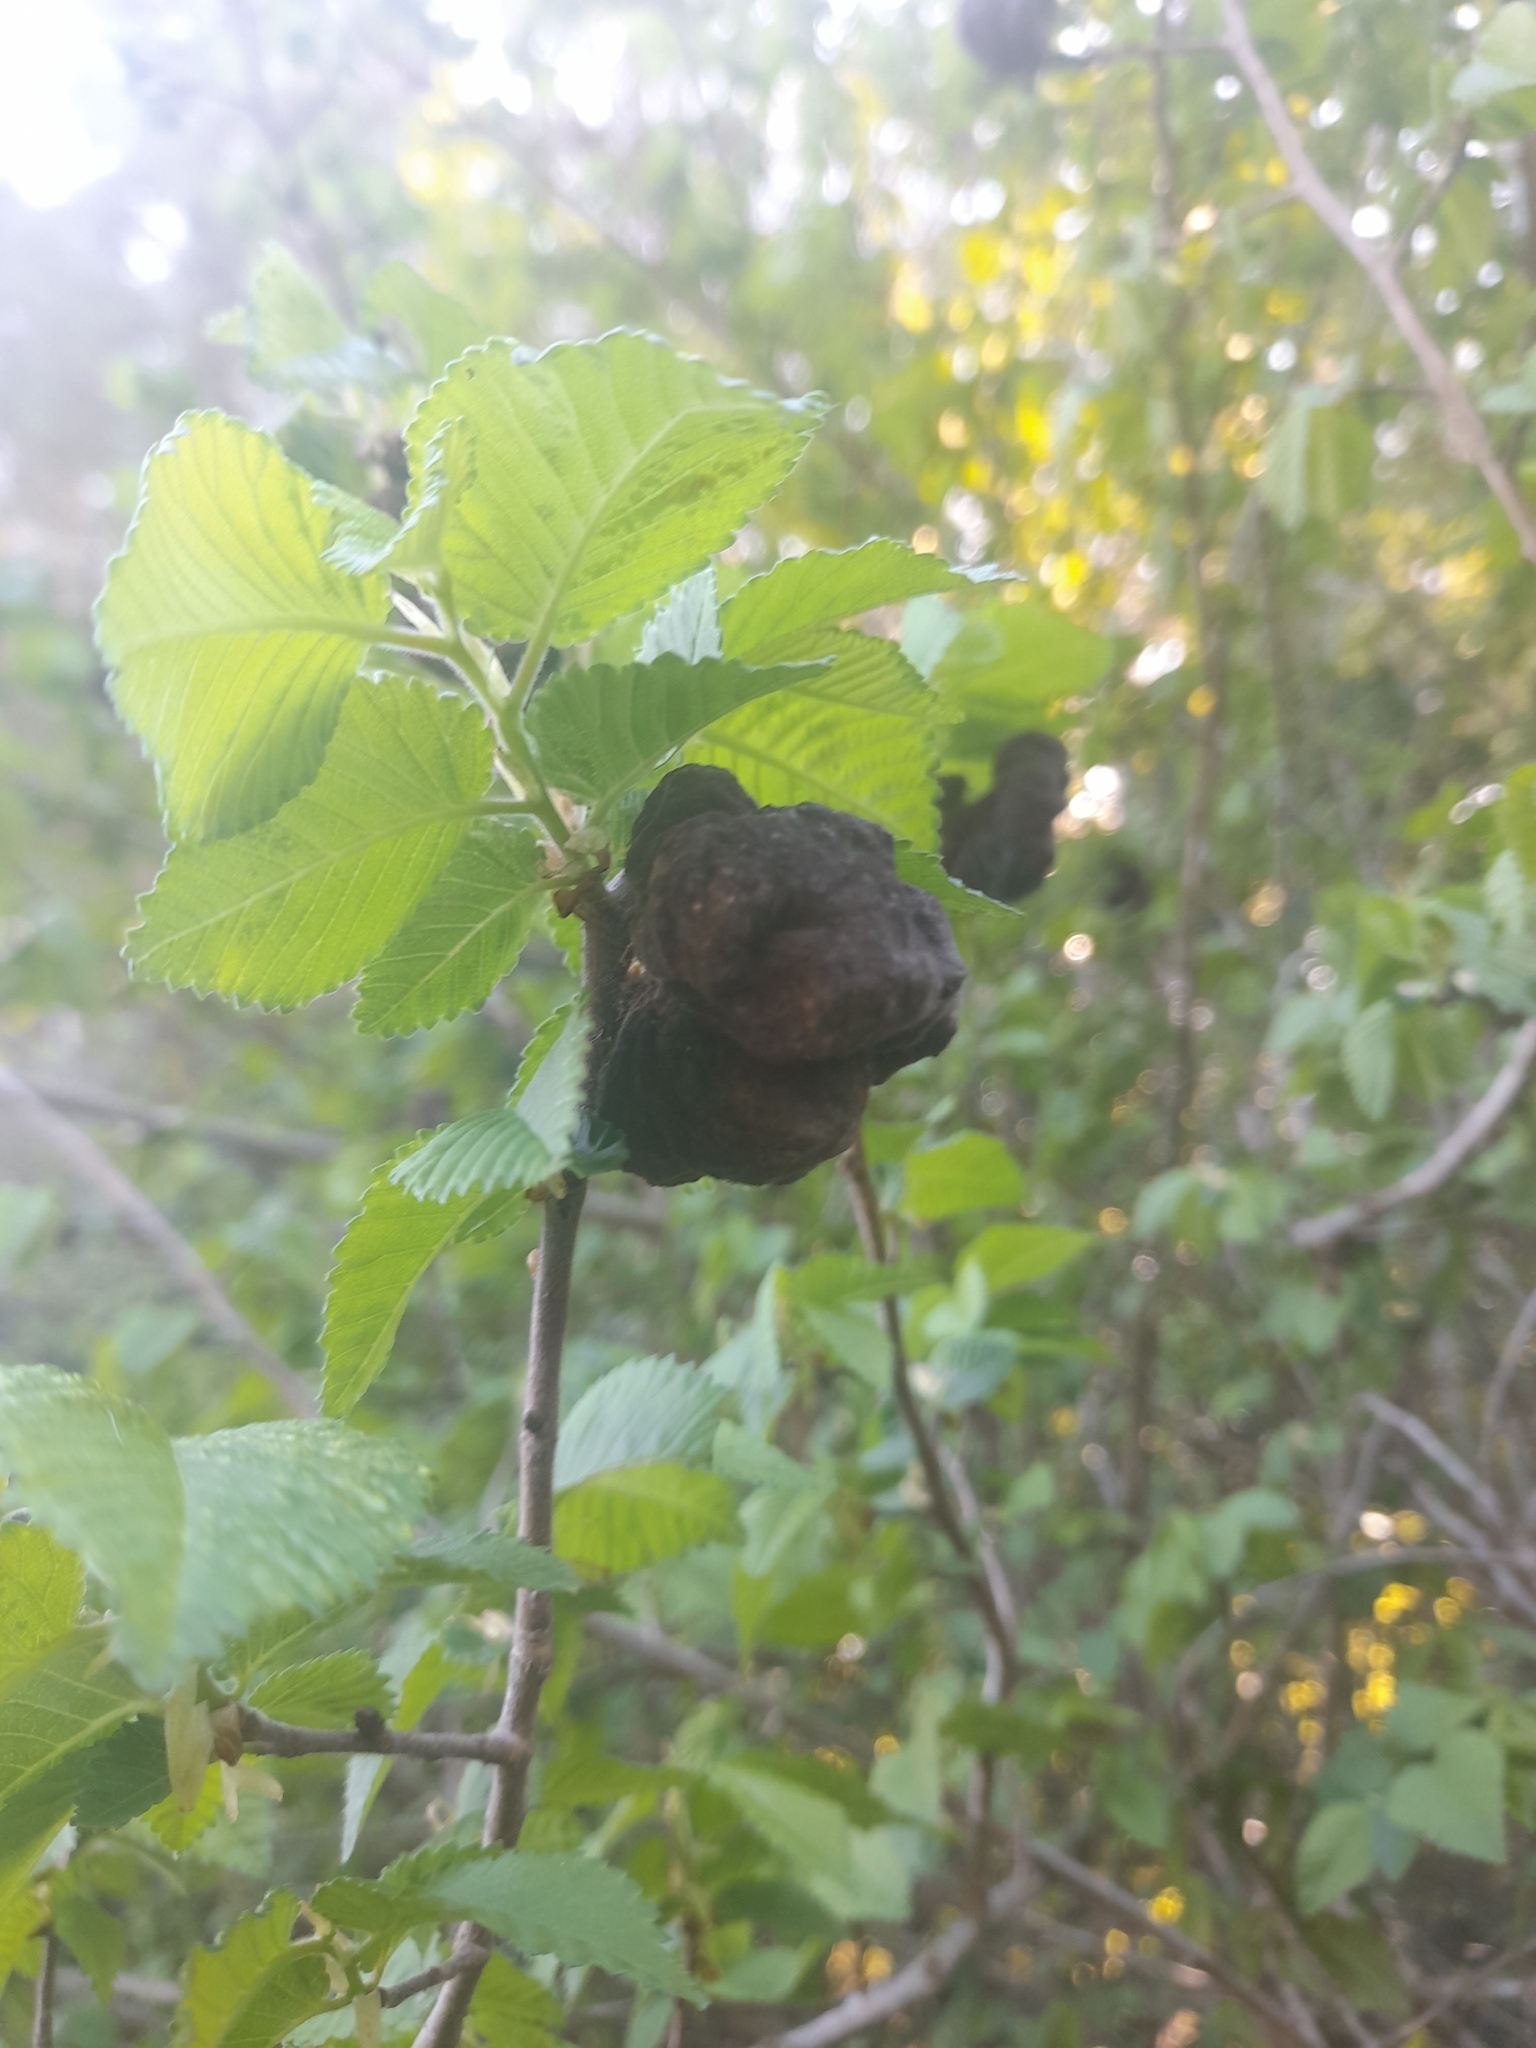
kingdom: Animalia
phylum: Arthropoda
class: Insecta
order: Hemiptera
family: Aphididae
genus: Eriosoma
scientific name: Eriosoma lanuginosum
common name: Aphid
